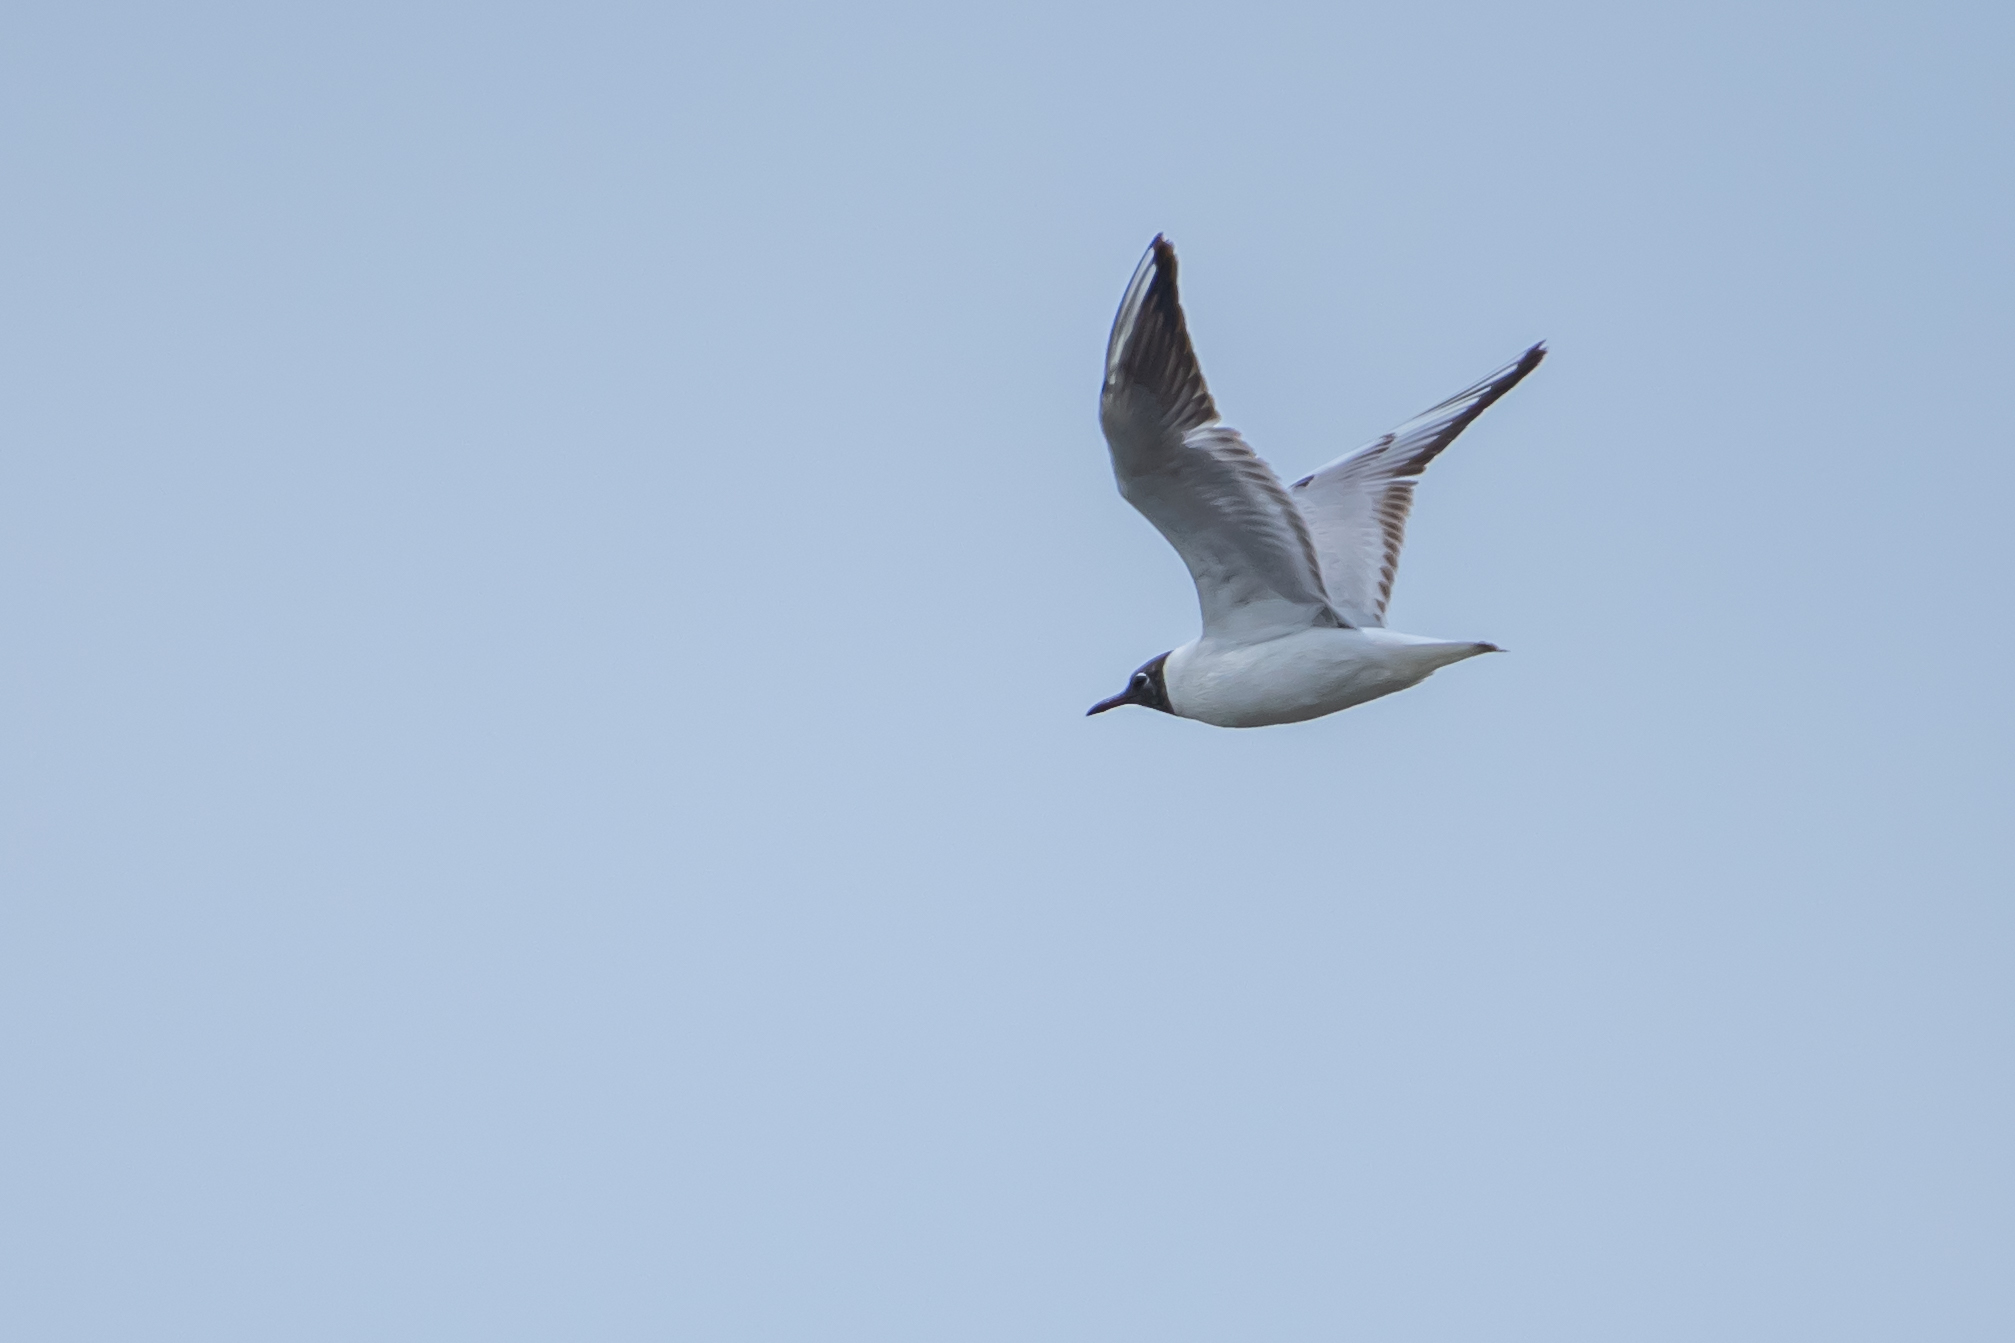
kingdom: Animalia
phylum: Chordata
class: Aves
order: Charadriiformes
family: Laridae
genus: Chroicocephalus
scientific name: Chroicocephalus ridibundus
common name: Black-headed gull
